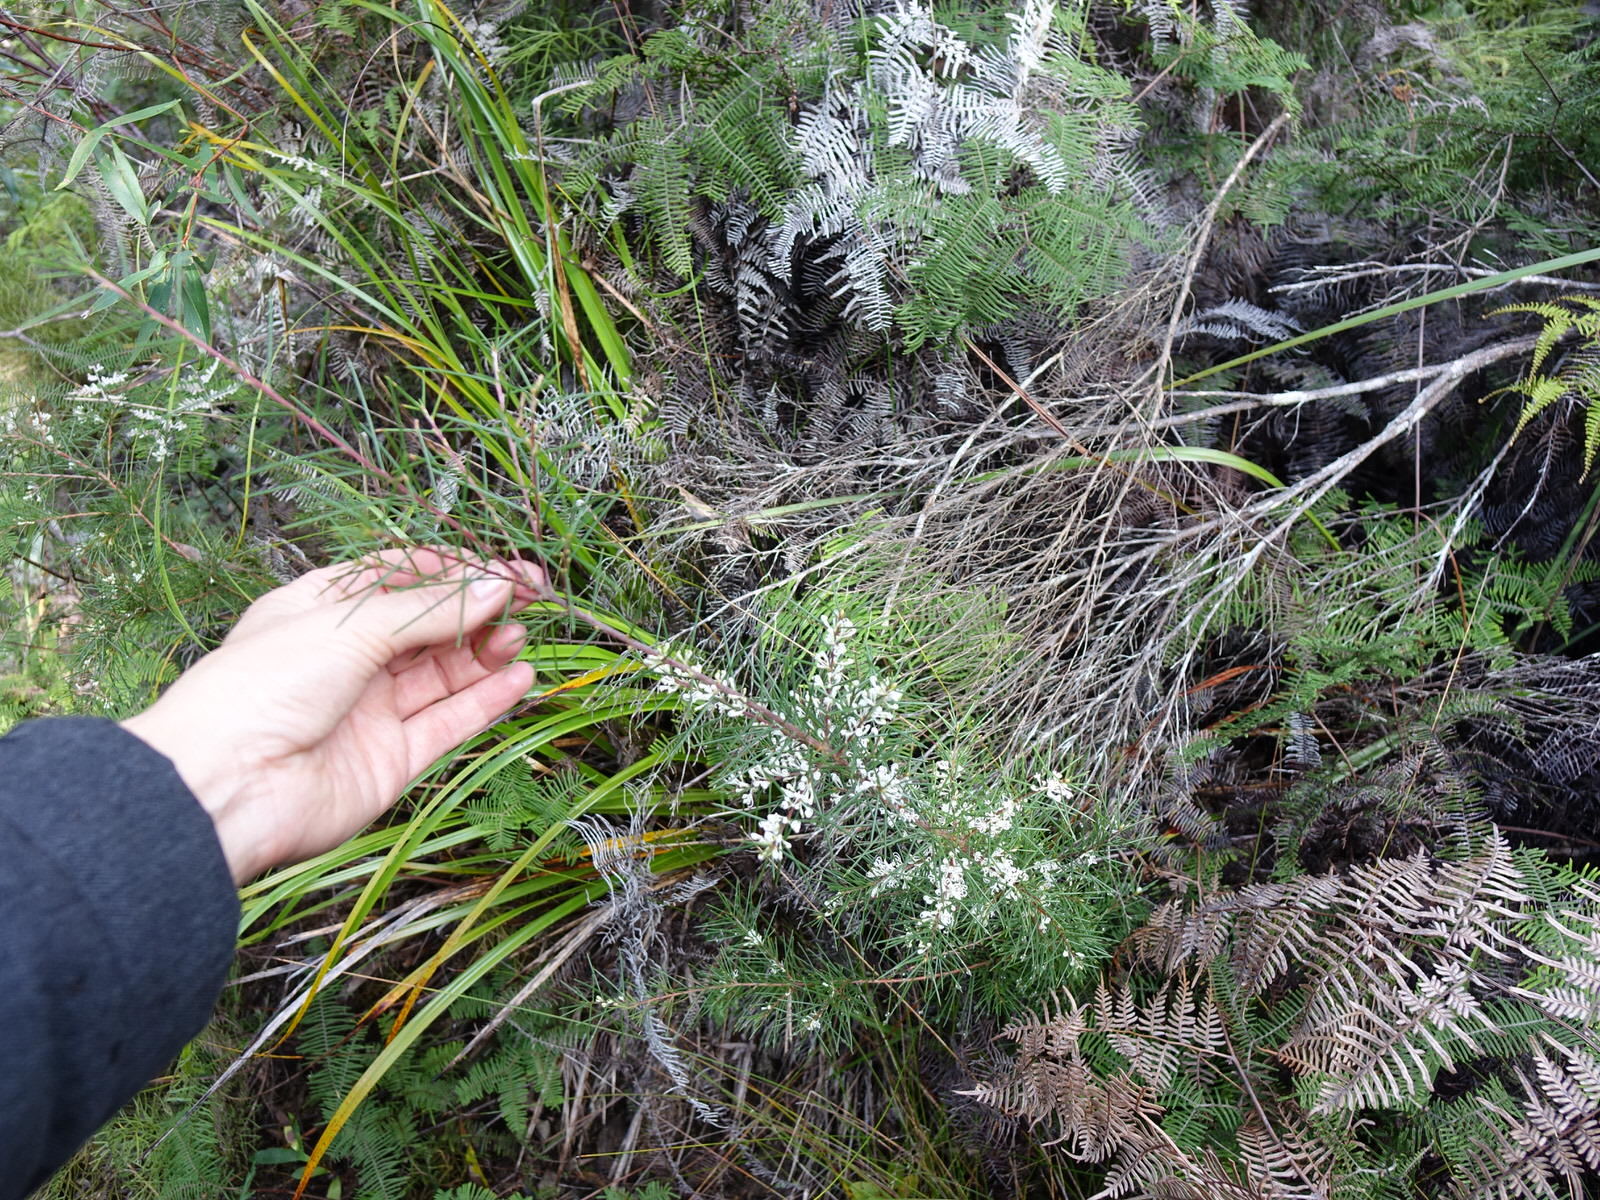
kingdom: Plantae
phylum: Tracheophyta
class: Magnoliopsida
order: Proteales
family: Proteaceae
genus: Hakea
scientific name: Hakea sericea
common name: Needle bush
